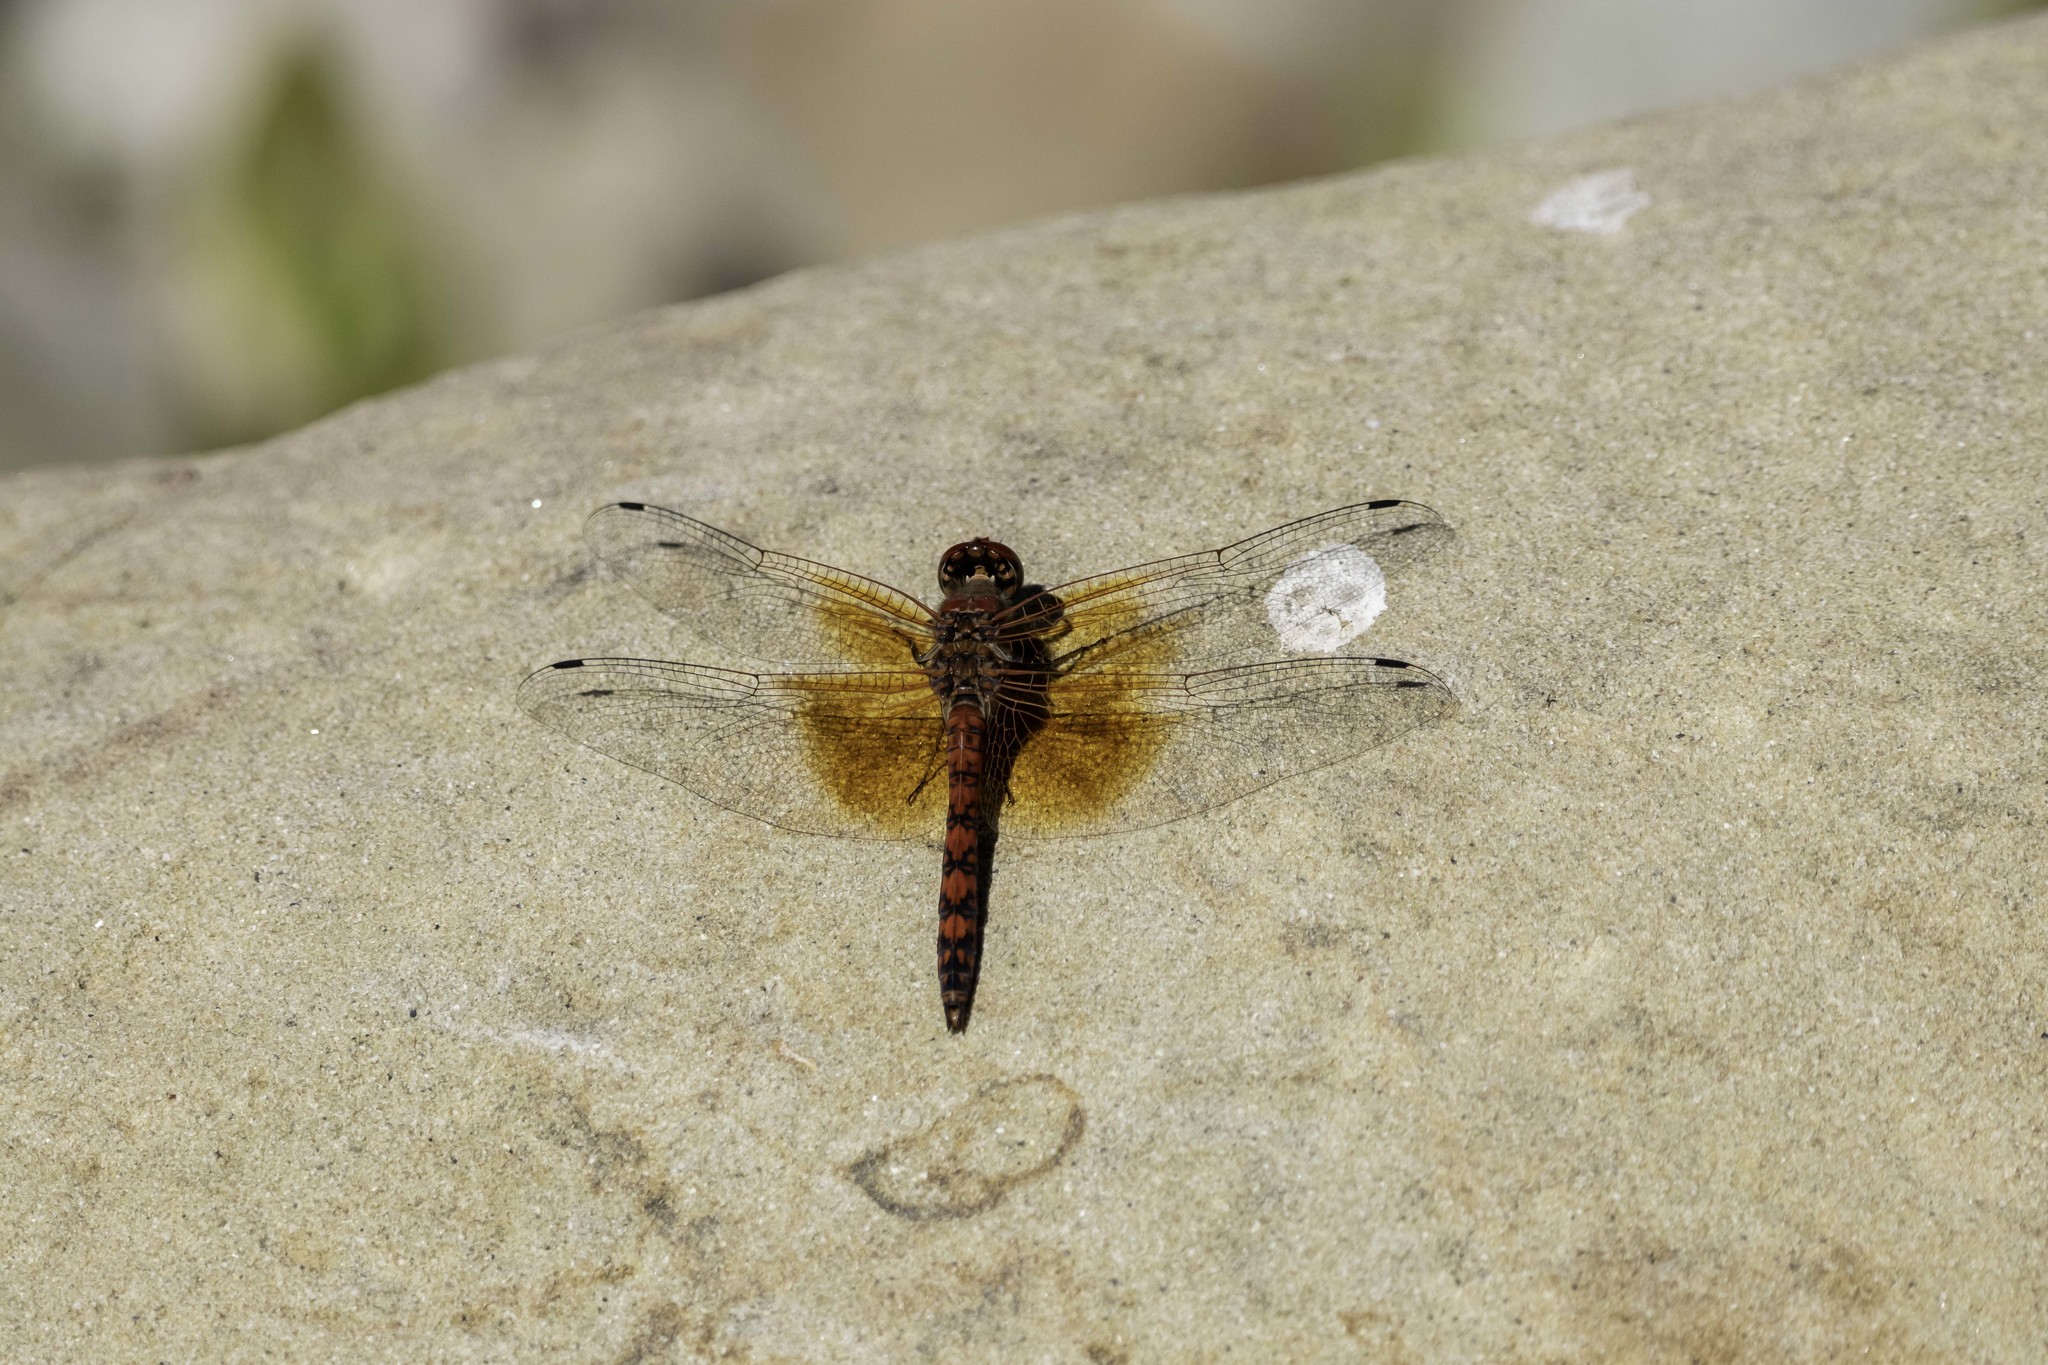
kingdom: Animalia
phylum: Arthropoda
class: Insecta
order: Odonata
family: Libellulidae
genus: Paltothemis
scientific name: Paltothemis lineatipes
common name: Red rock skimmer
